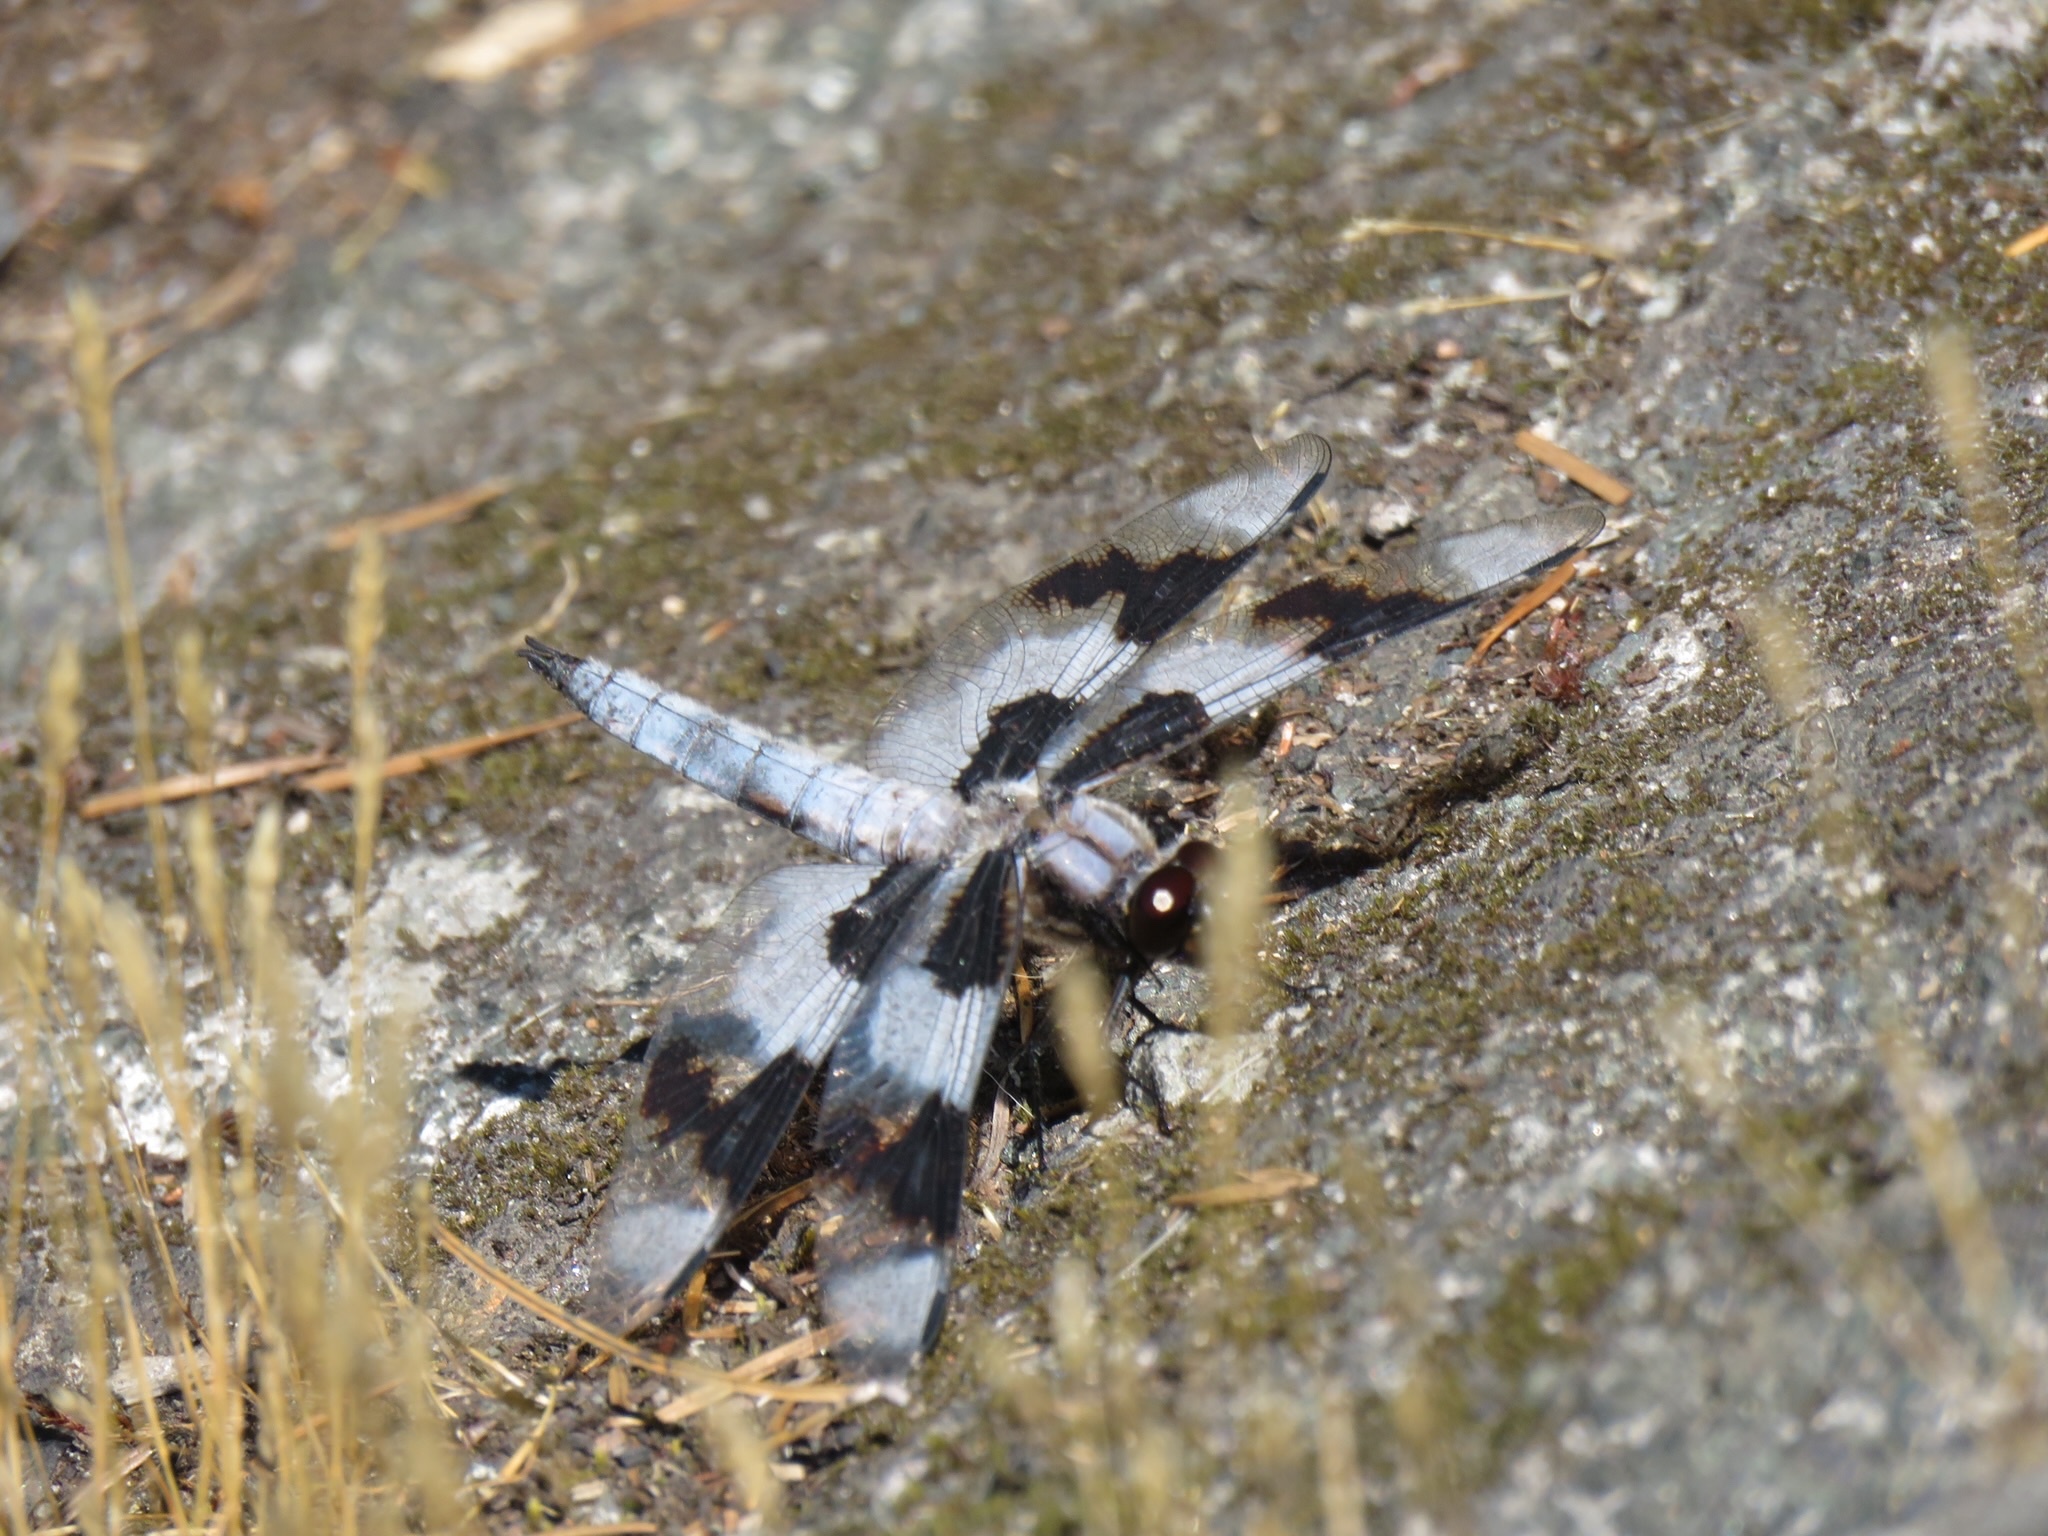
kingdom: Animalia
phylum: Arthropoda
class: Insecta
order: Odonata
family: Libellulidae
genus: Libellula
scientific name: Libellula forensis
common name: Eight-spotted skimmer
